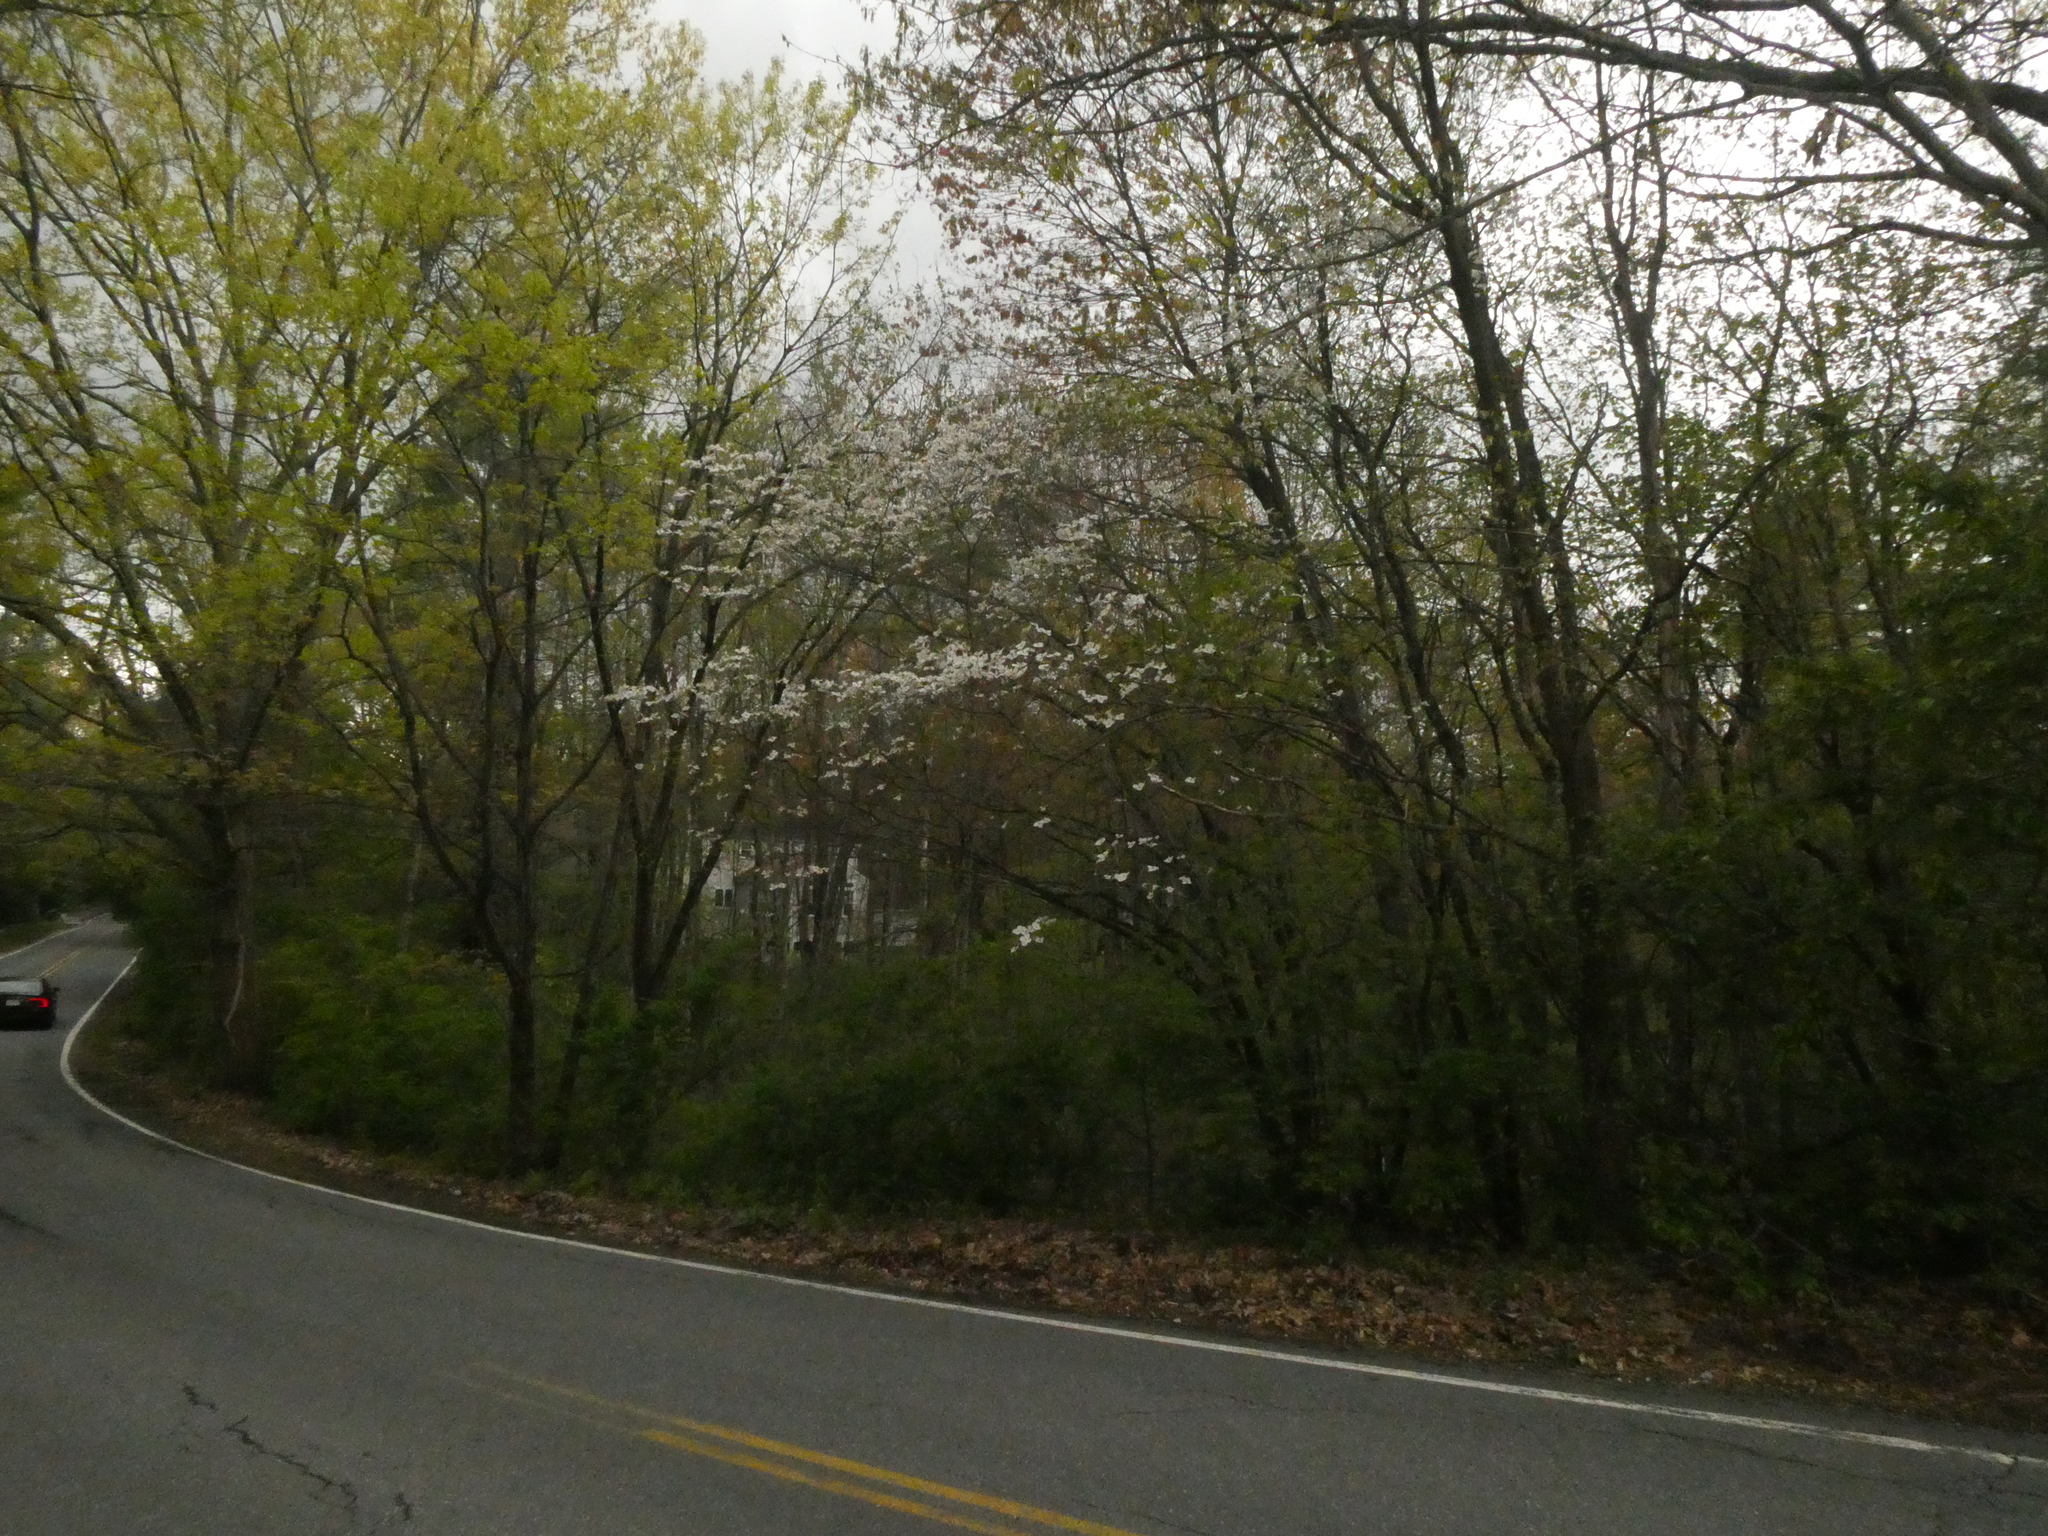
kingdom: Plantae
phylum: Tracheophyta
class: Magnoliopsida
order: Cornales
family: Cornaceae
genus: Cornus
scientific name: Cornus florida
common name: Flowering dogwood
